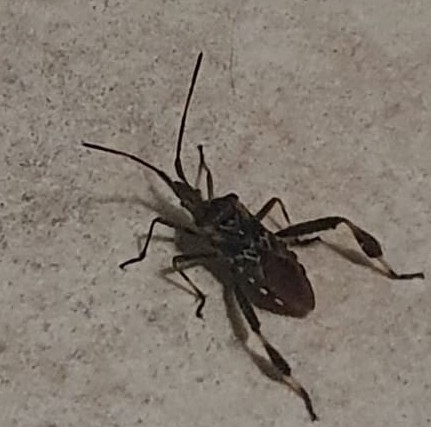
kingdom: Animalia
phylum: Arthropoda
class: Insecta
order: Hemiptera
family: Coreidae
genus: Leptoglossus
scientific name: Leptoglossus occidentalis
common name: Western conifer-seed bug
